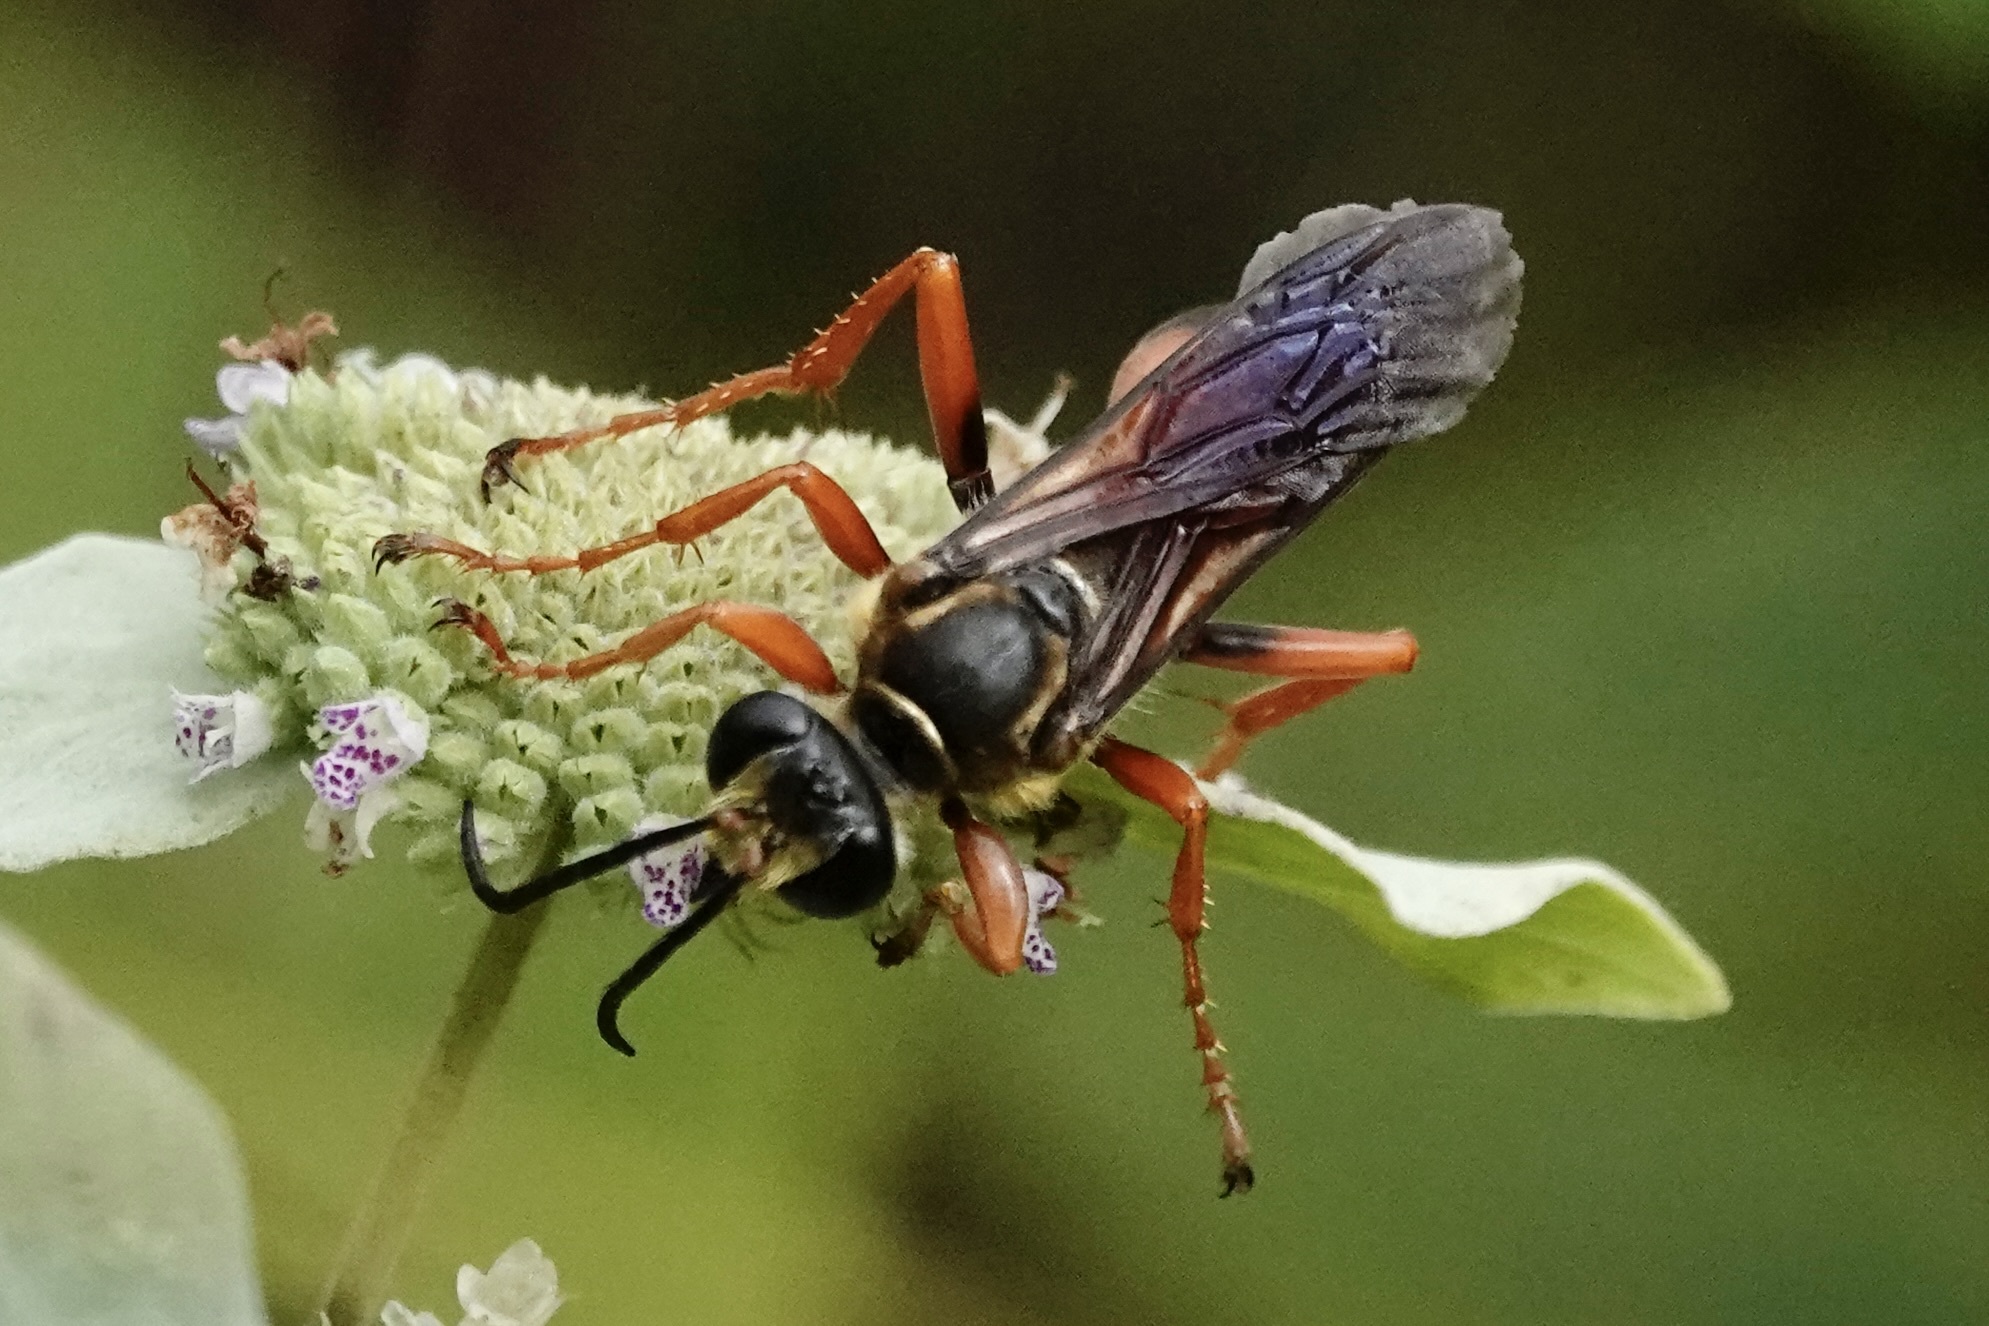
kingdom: Animalia
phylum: Arthropoda
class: Insecta
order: Hymenoptera
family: Sphecidae
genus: Sphex
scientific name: Sphex ichneumoneus
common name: Great golden digger wasp
